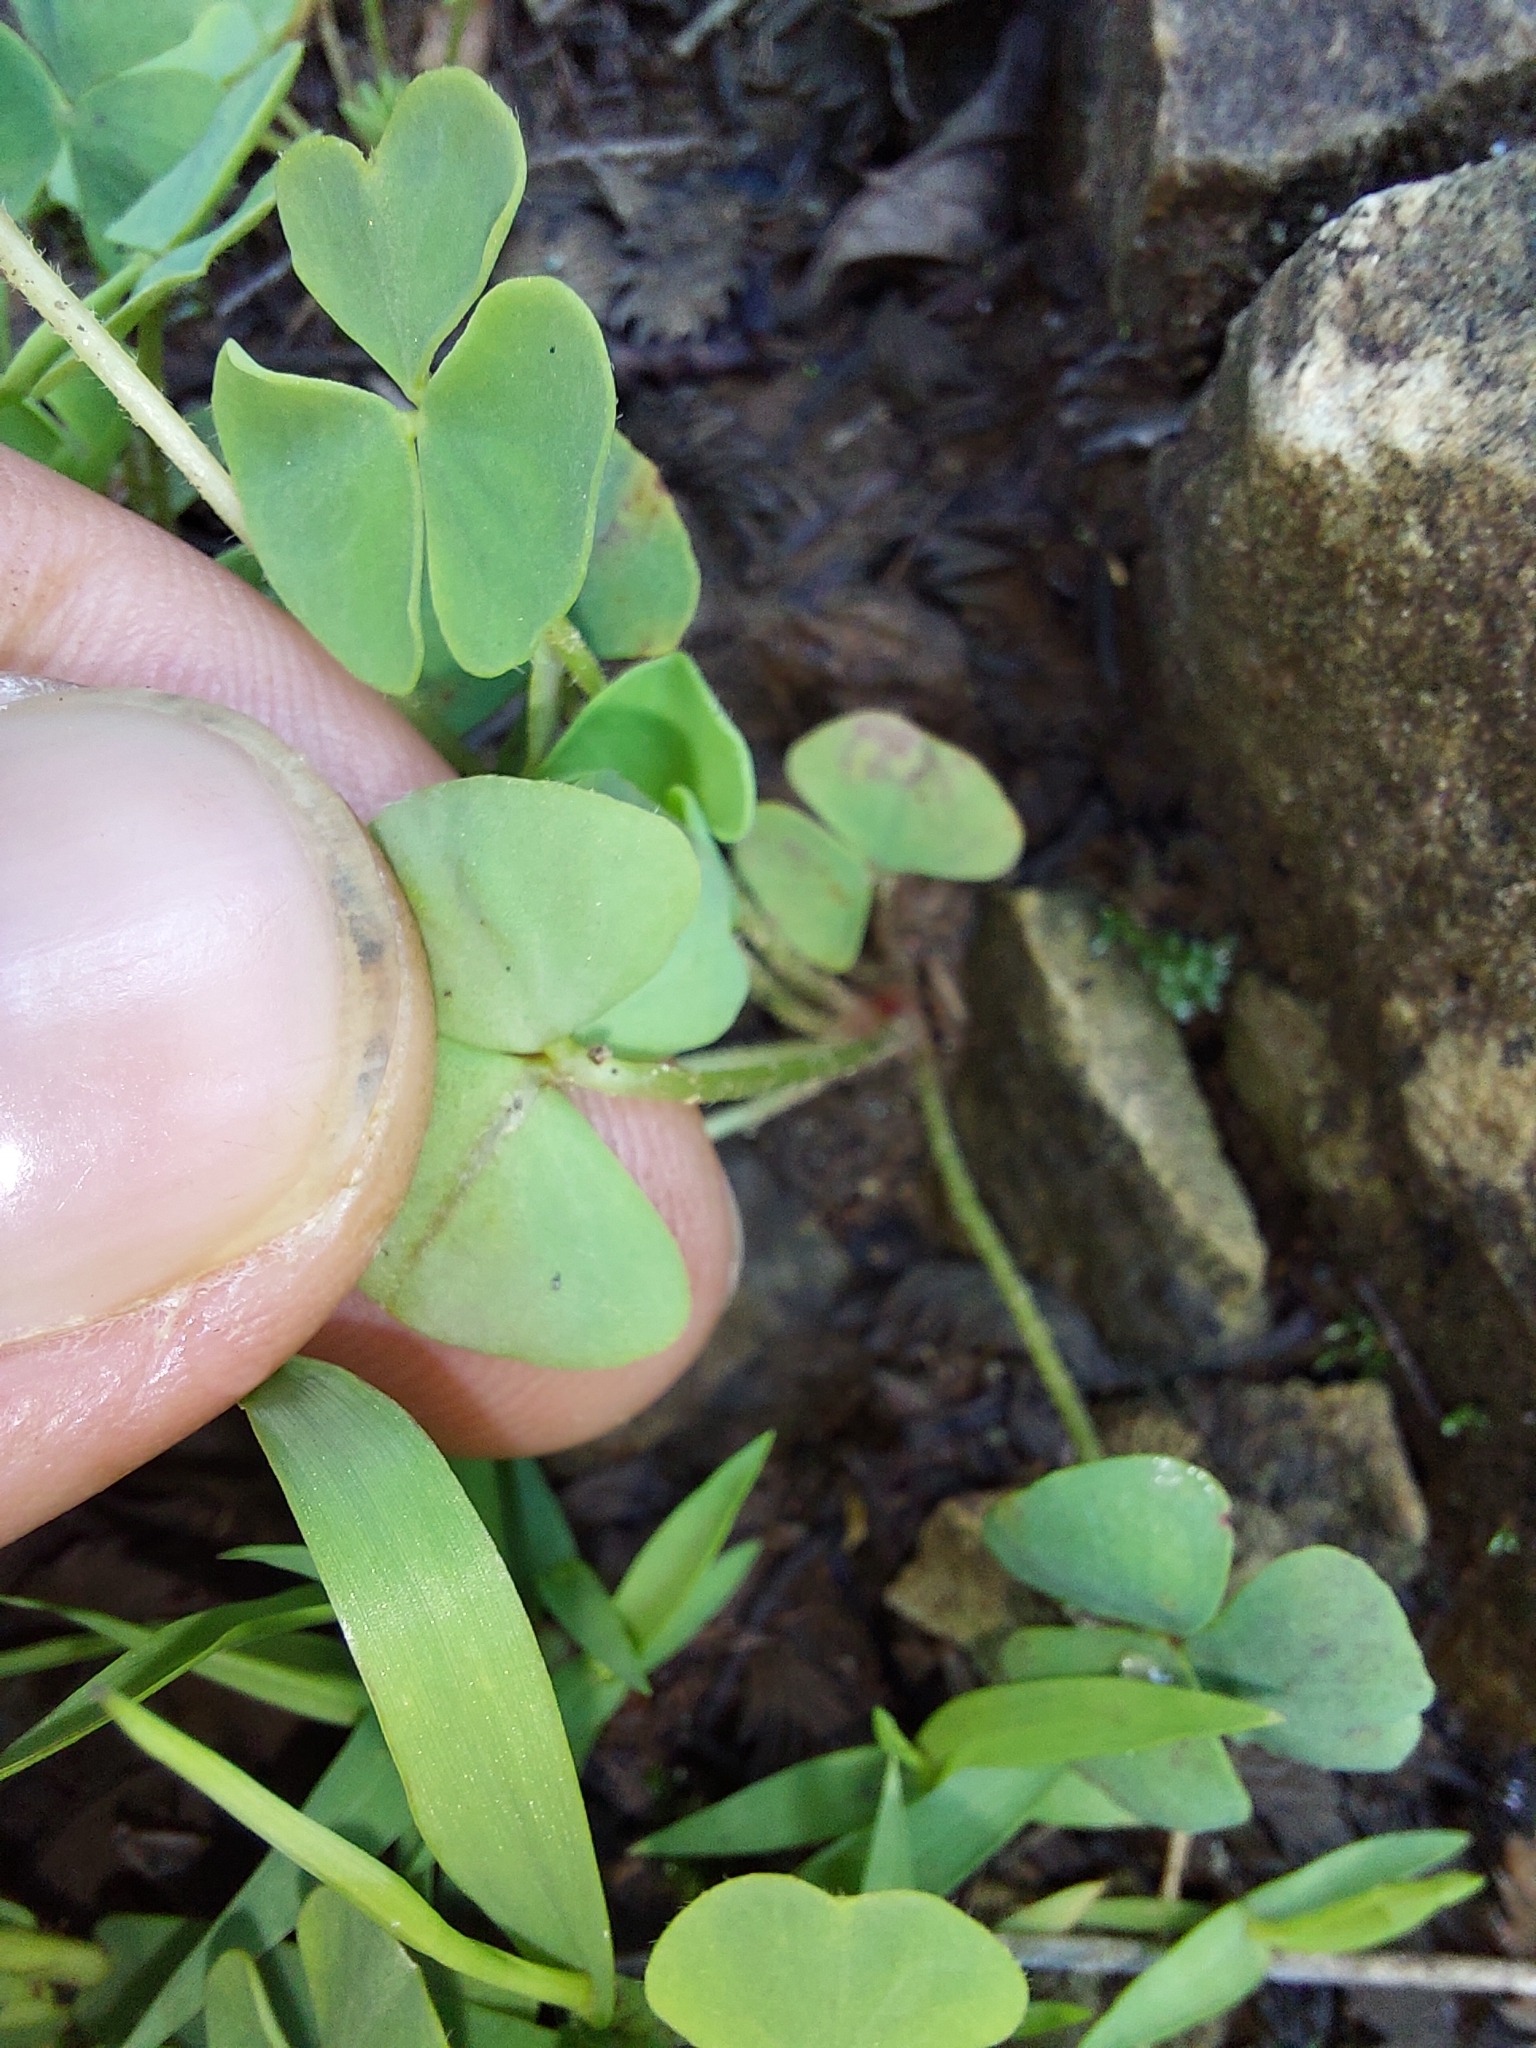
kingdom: Plantae
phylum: Tracheophyta
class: Magnoliopsida
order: Oxalidales
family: Oxalidaceae
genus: Oxalis
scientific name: Oxalis obliquifolia
